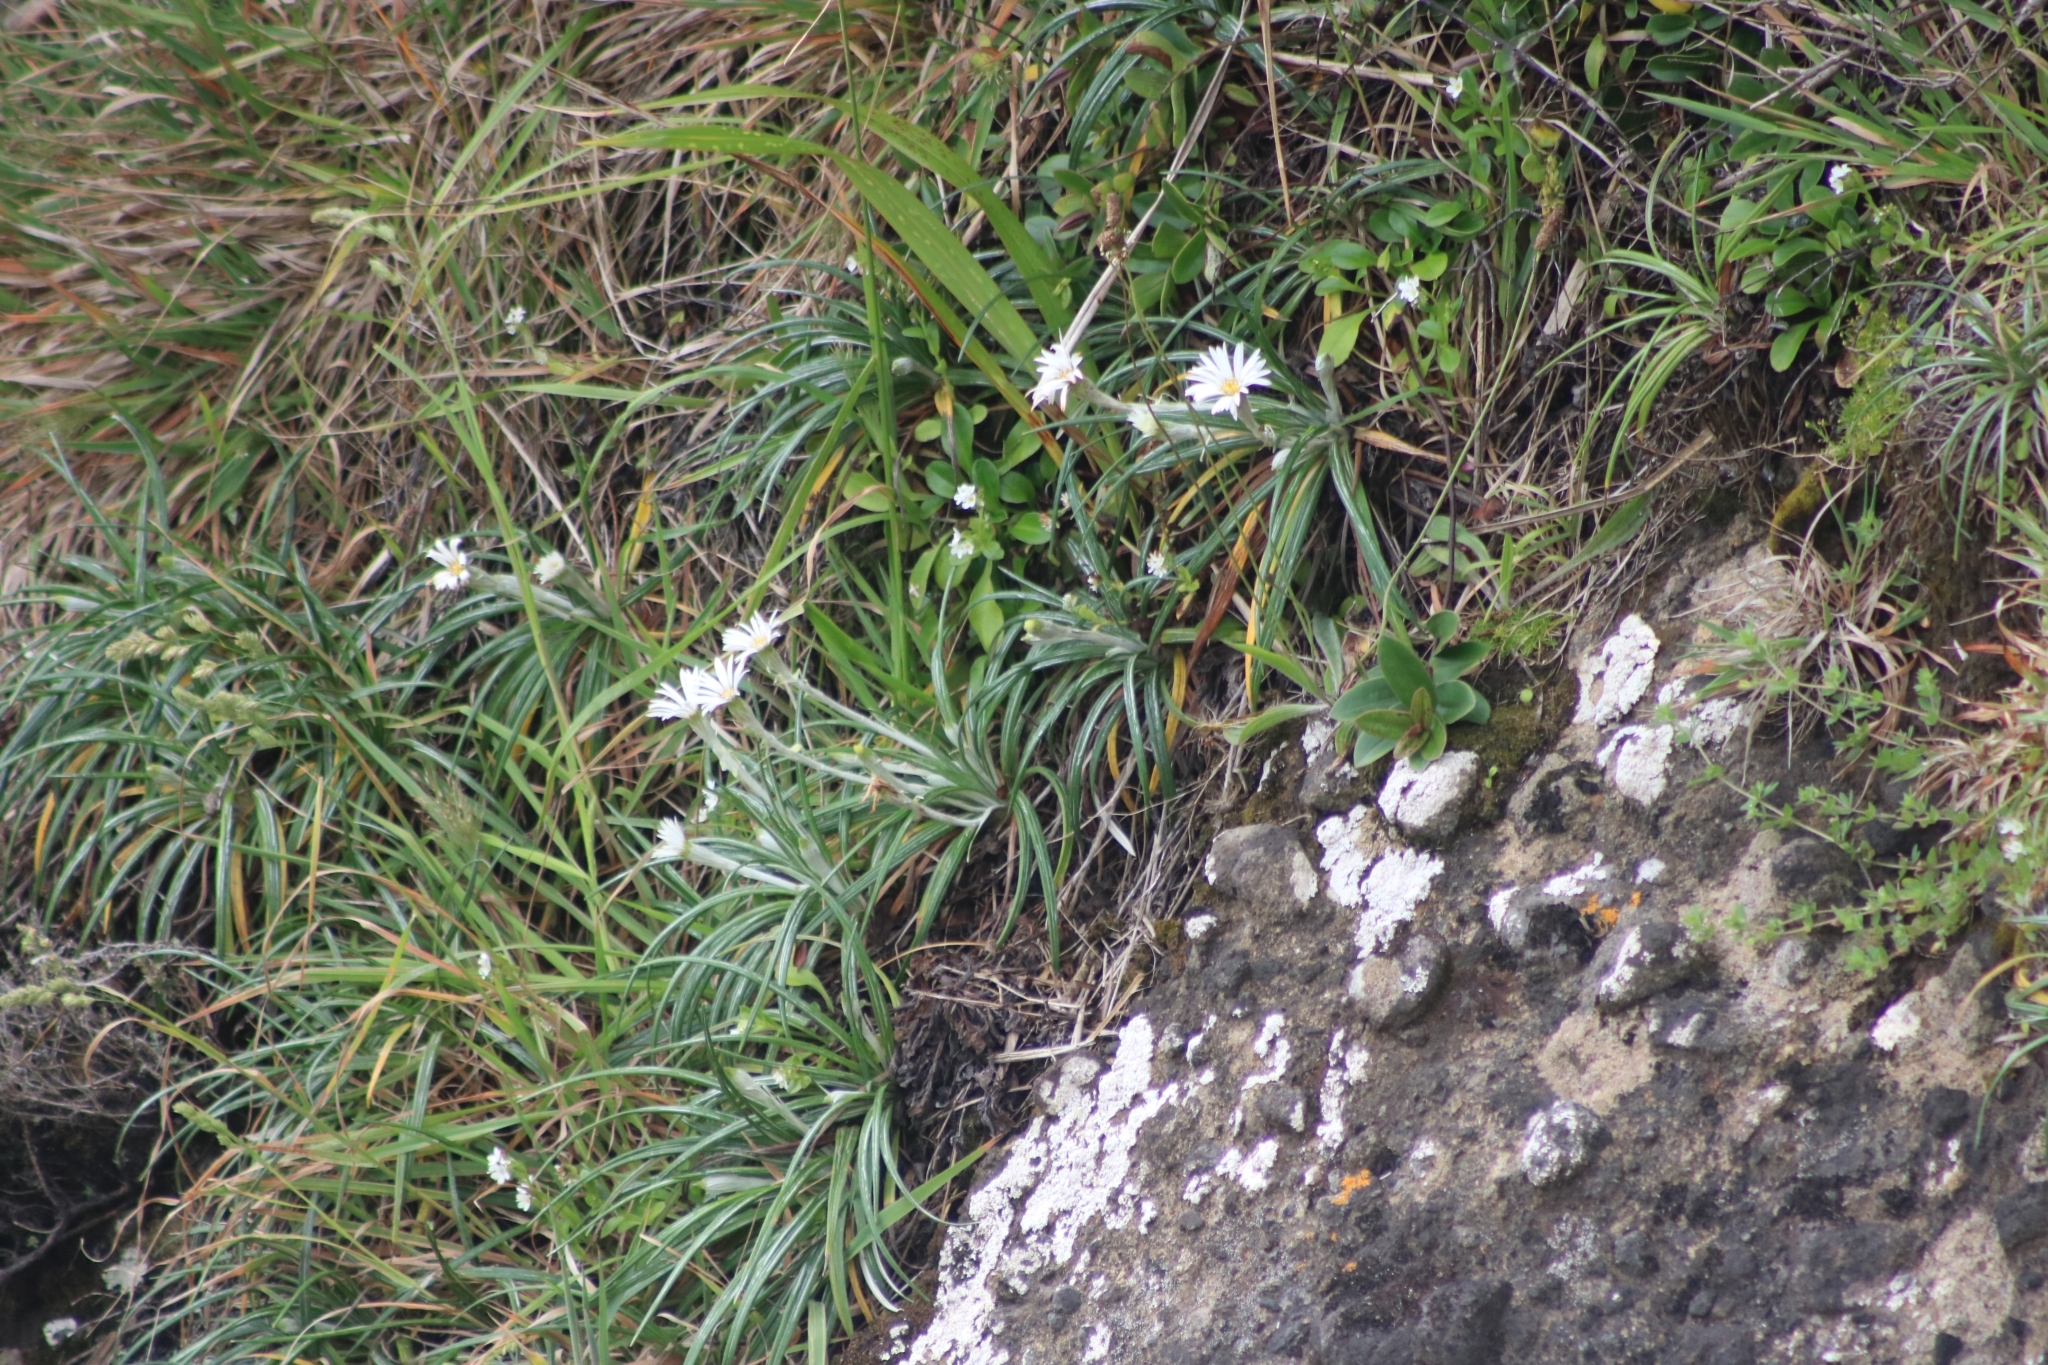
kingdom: Plantae
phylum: Tracheophyta
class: Magnoliopsida
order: Asterales
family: Asteraceae
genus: Celmisia
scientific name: Celmisia major
